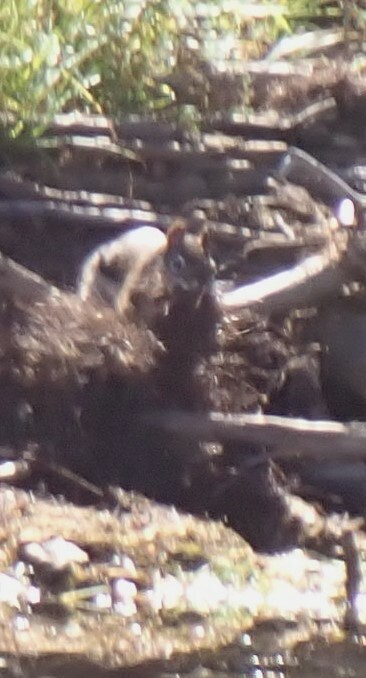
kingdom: Animalia
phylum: Chordata
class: Mammalia
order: Rodentia
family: Sciuridae
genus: Tamiasciurus
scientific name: Tamiasciurus hudsonicus
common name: Red squirrel
